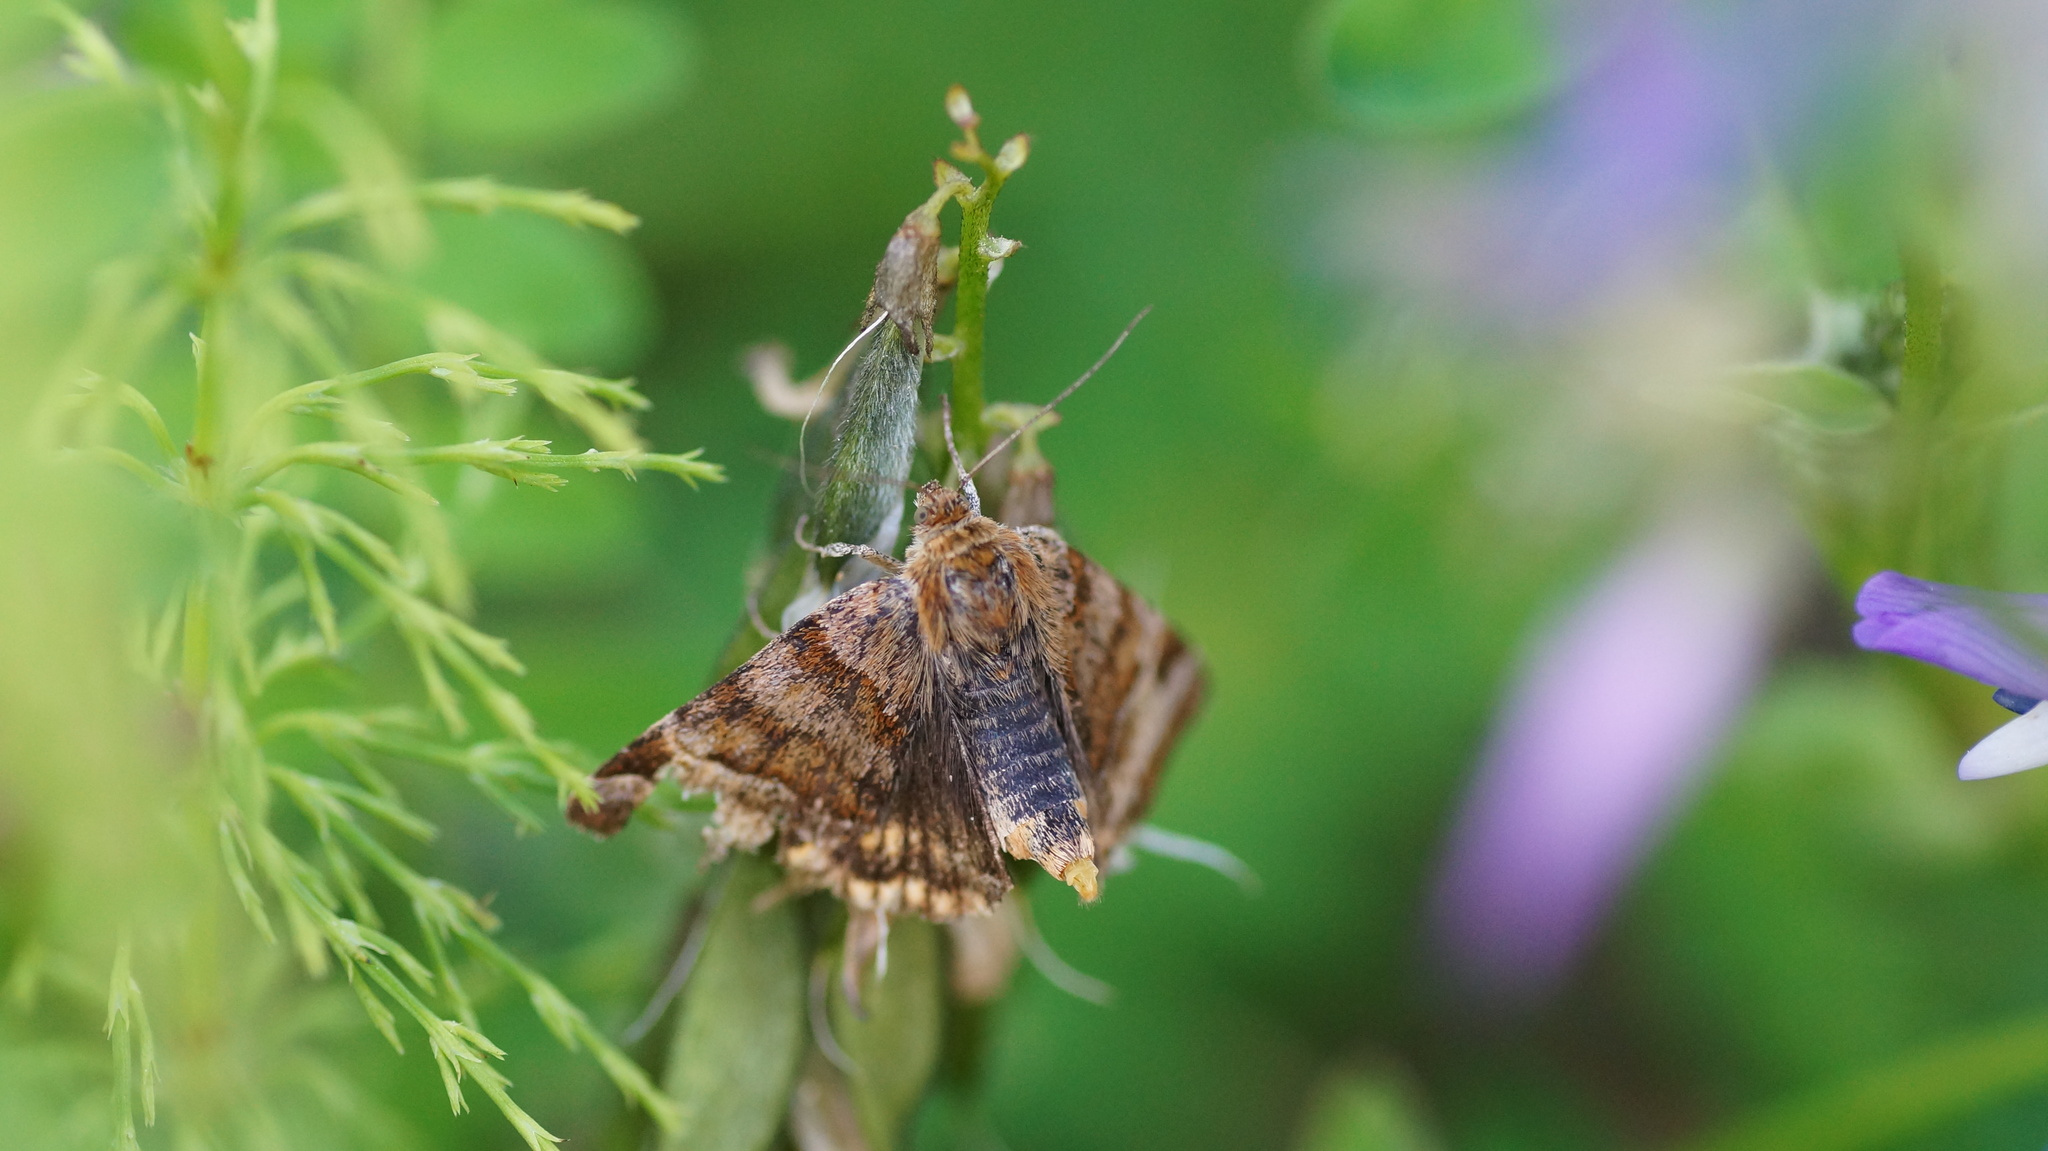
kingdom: Animalia
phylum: Arthropoda
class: Insecta
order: Lepidoptera
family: Erebidae
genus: Euclidia
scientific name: Euclidia glyphica
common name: Burnet companion
